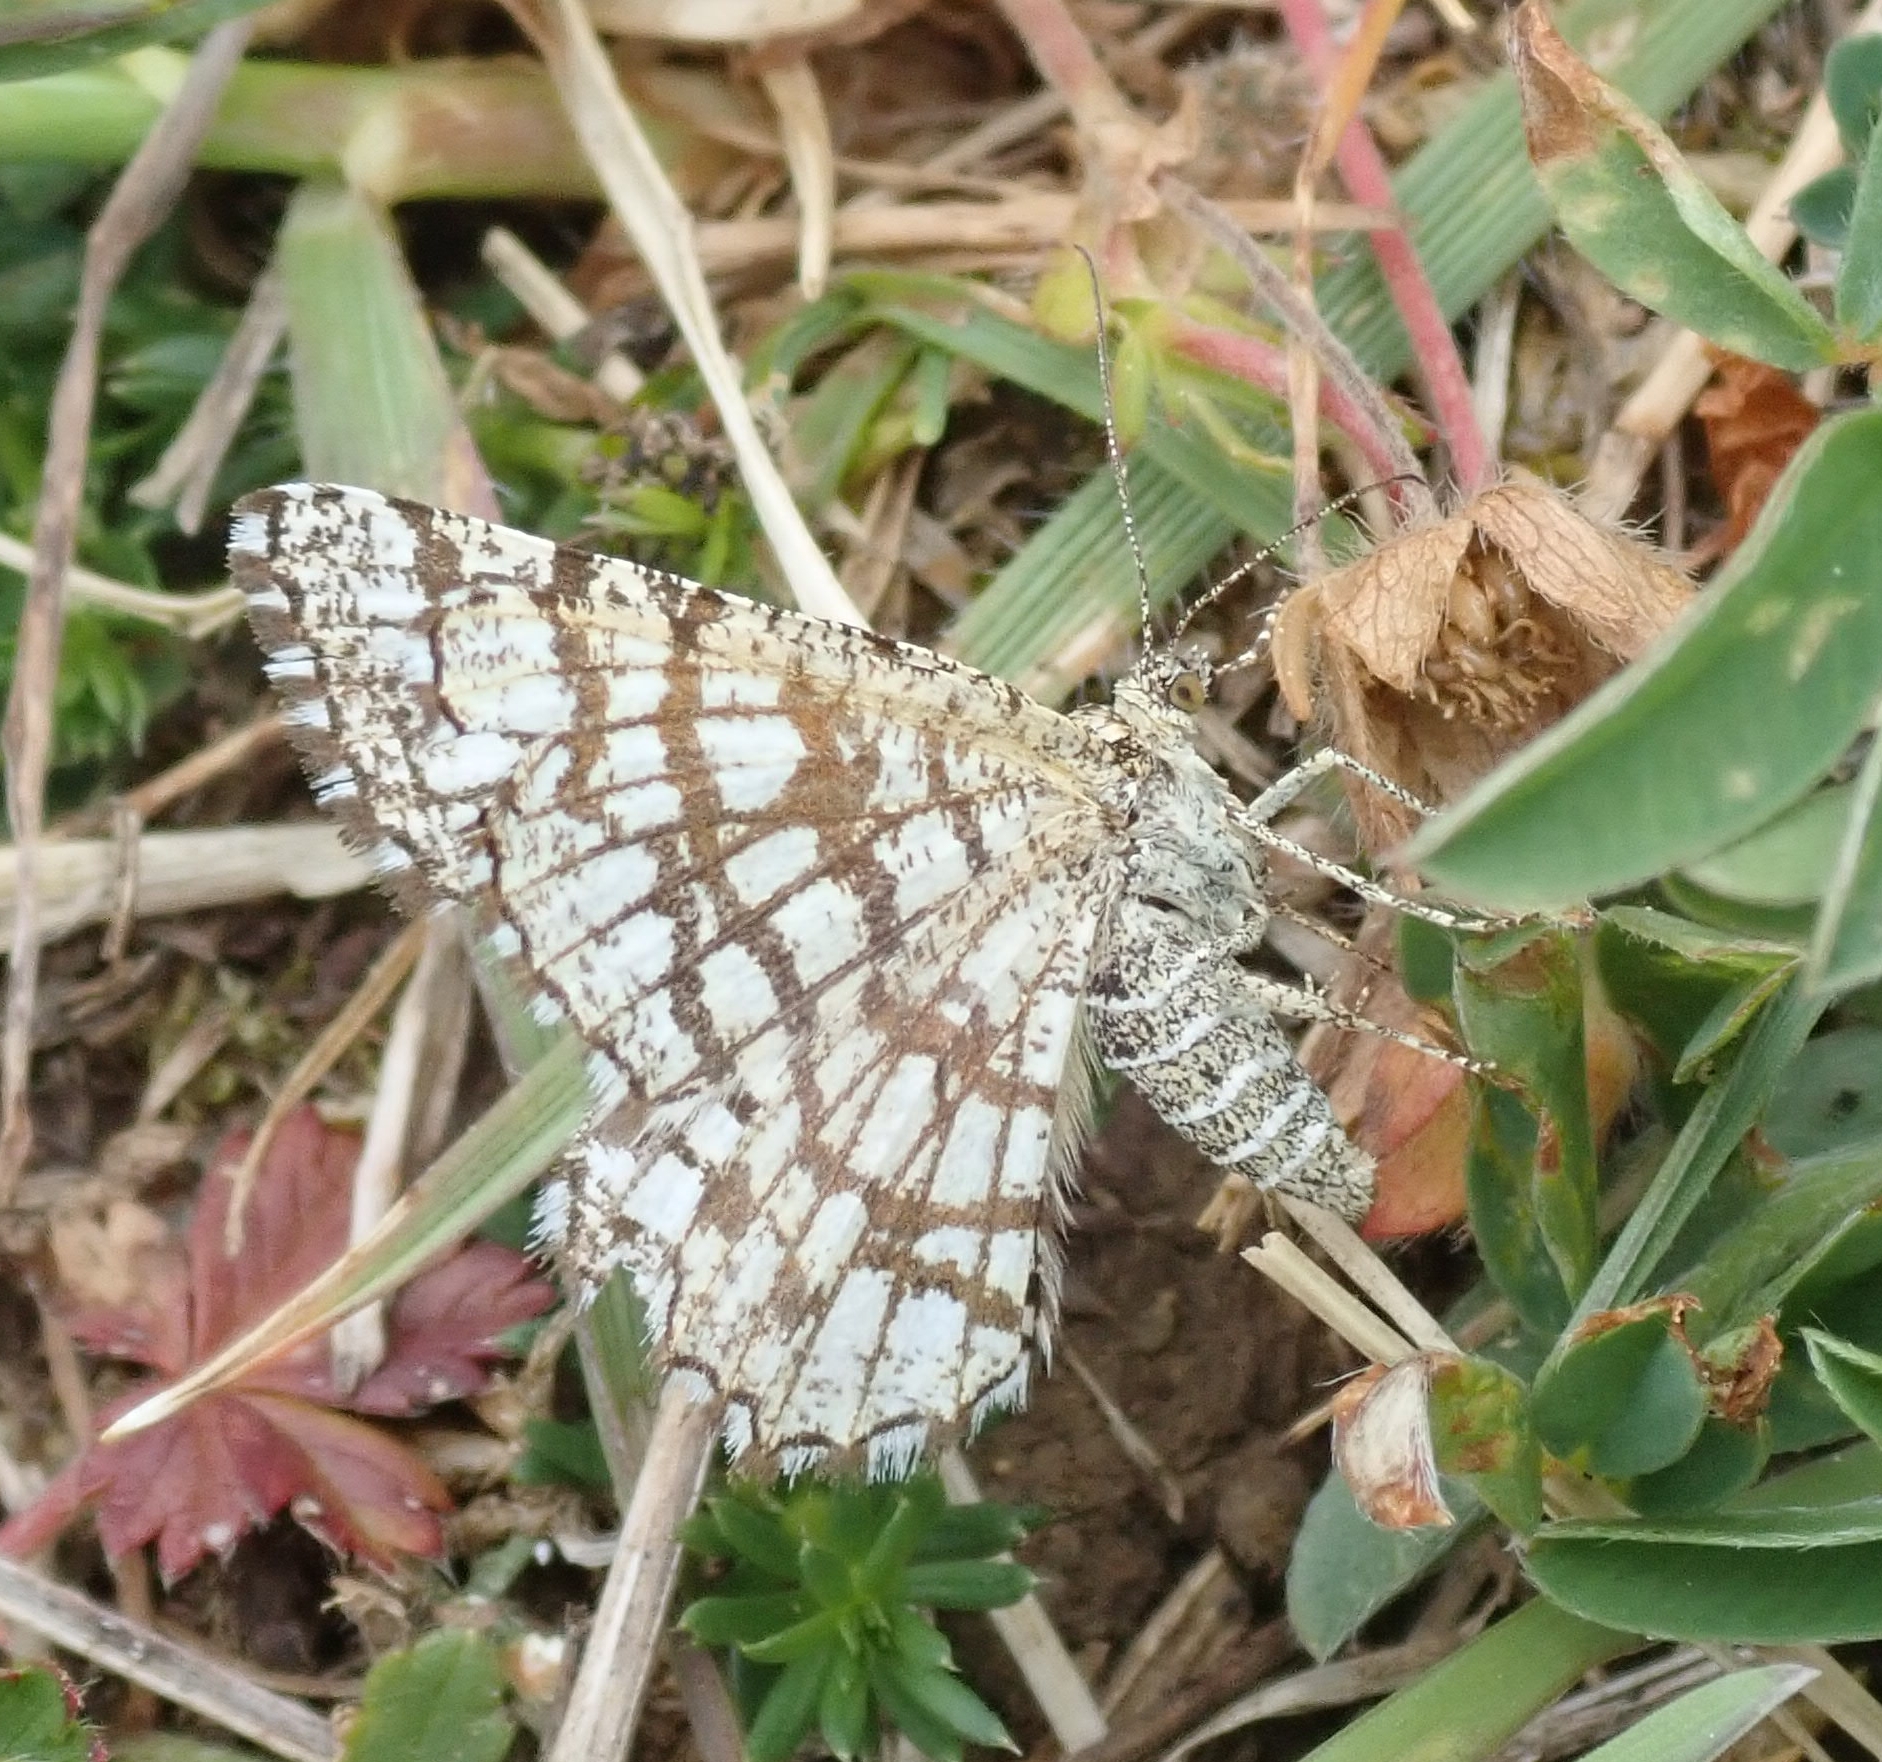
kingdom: Animalia
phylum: Arthropoda
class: Insecta
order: Lepidoptera
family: Geometridae
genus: Chiasmia
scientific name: Chiasmia clathrata
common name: Latticed heath
